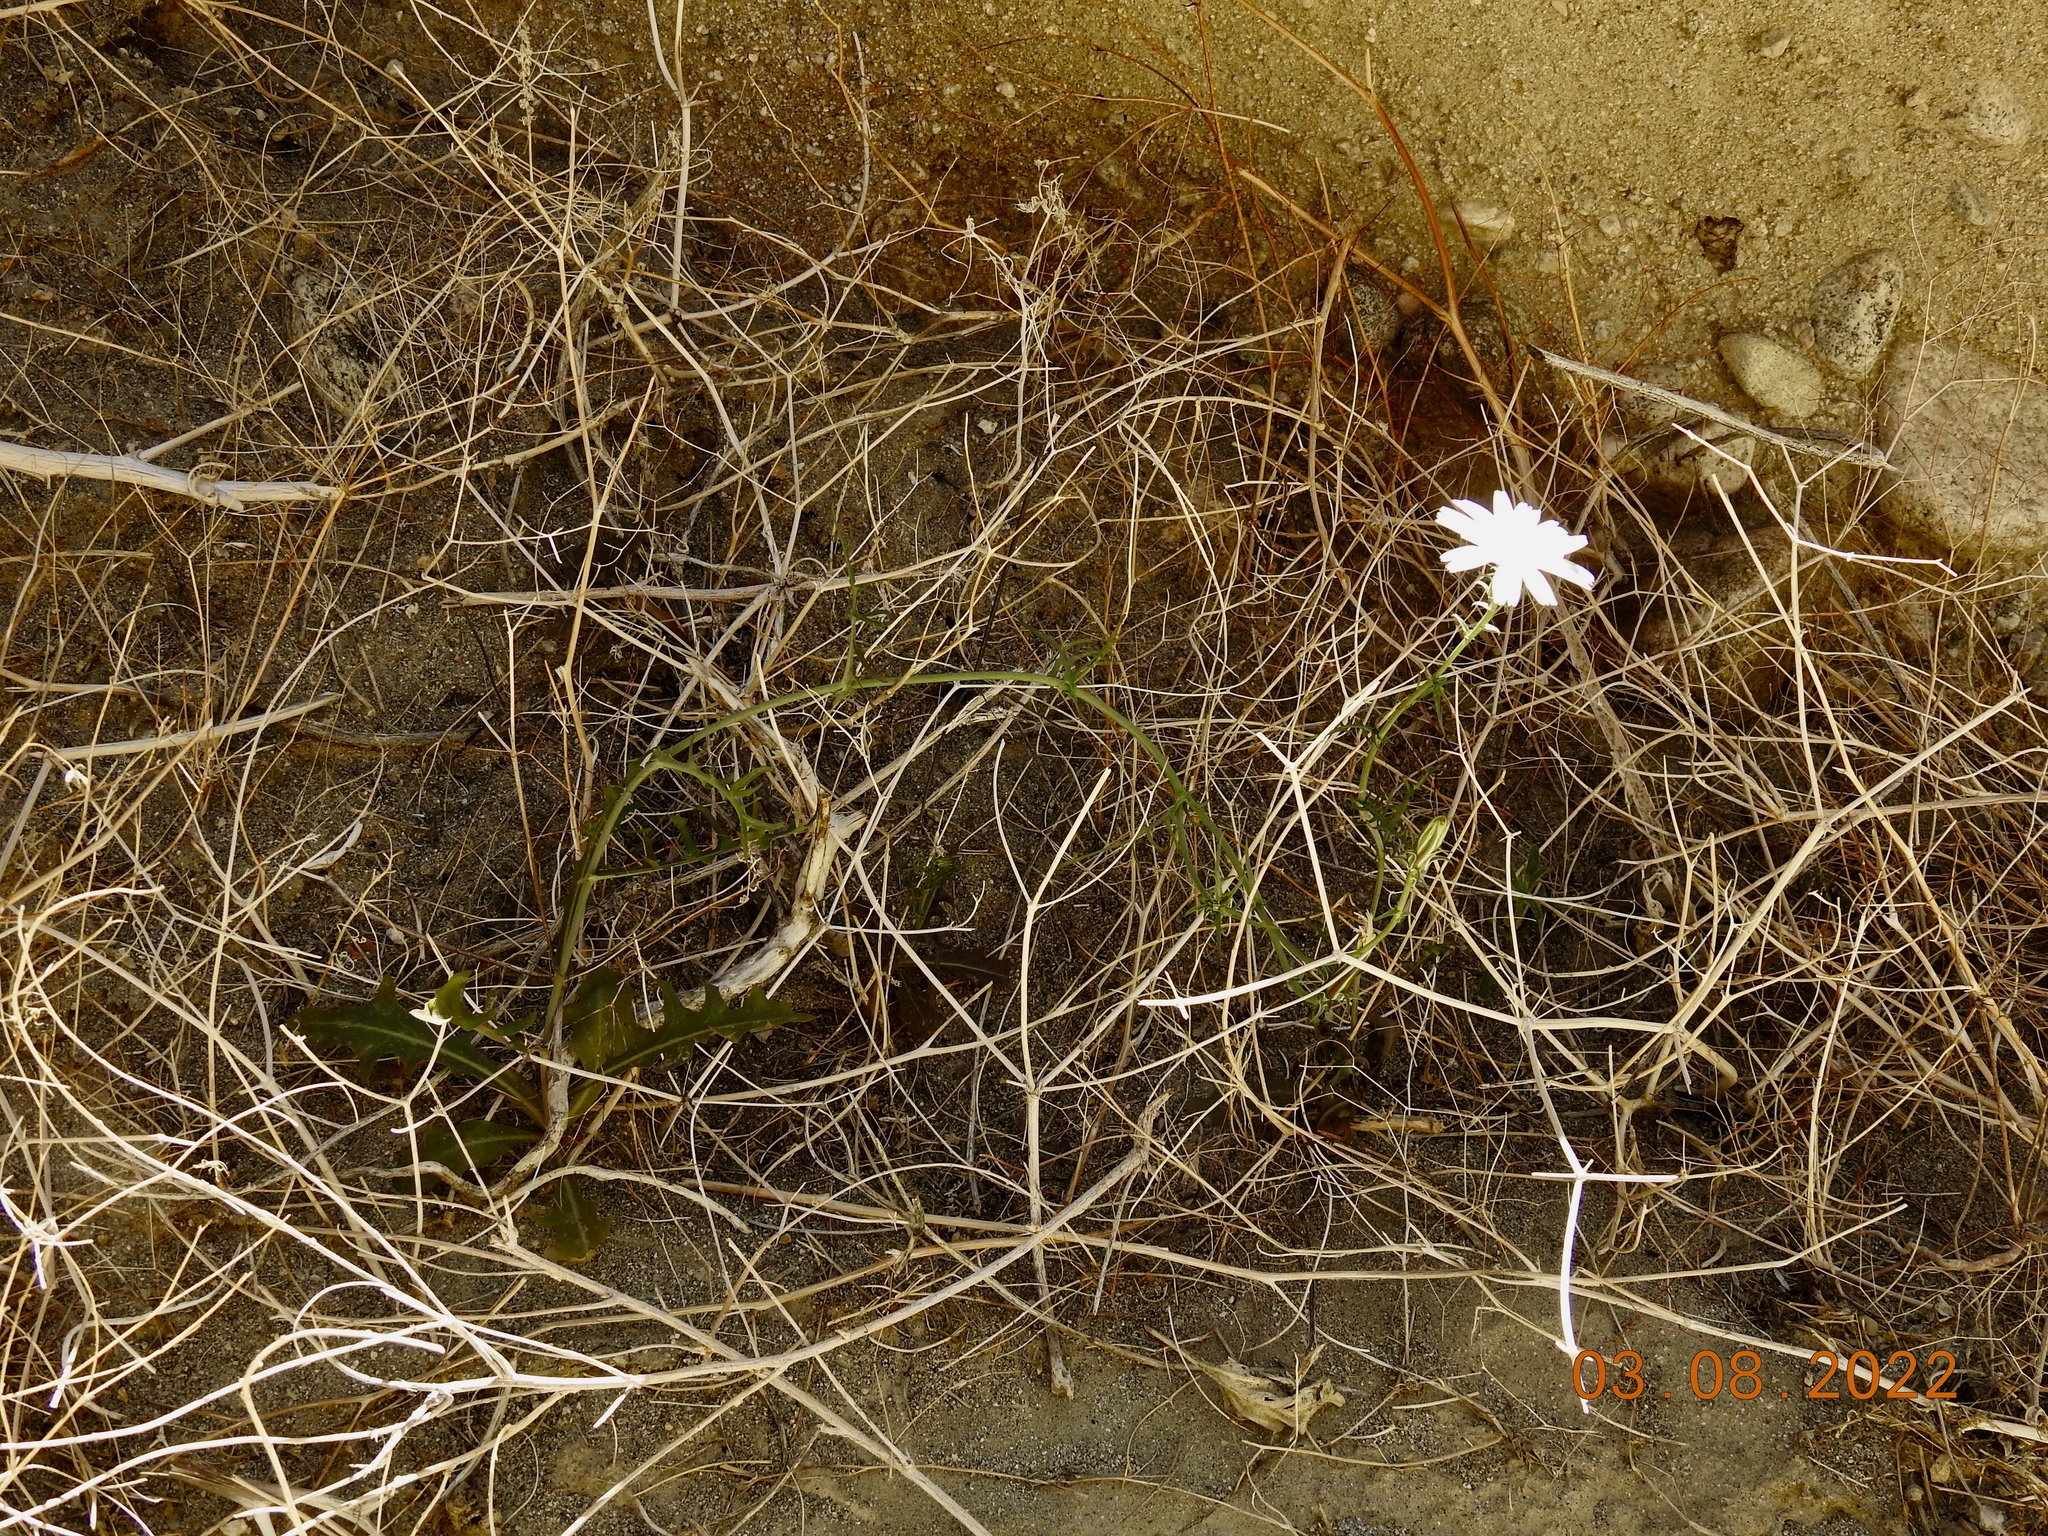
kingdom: Plantae
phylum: Tracheophyta
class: Magnoliopsida
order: Asterales
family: Asteraceae
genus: Rafinesquia
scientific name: Rafinesquia neomexicana
